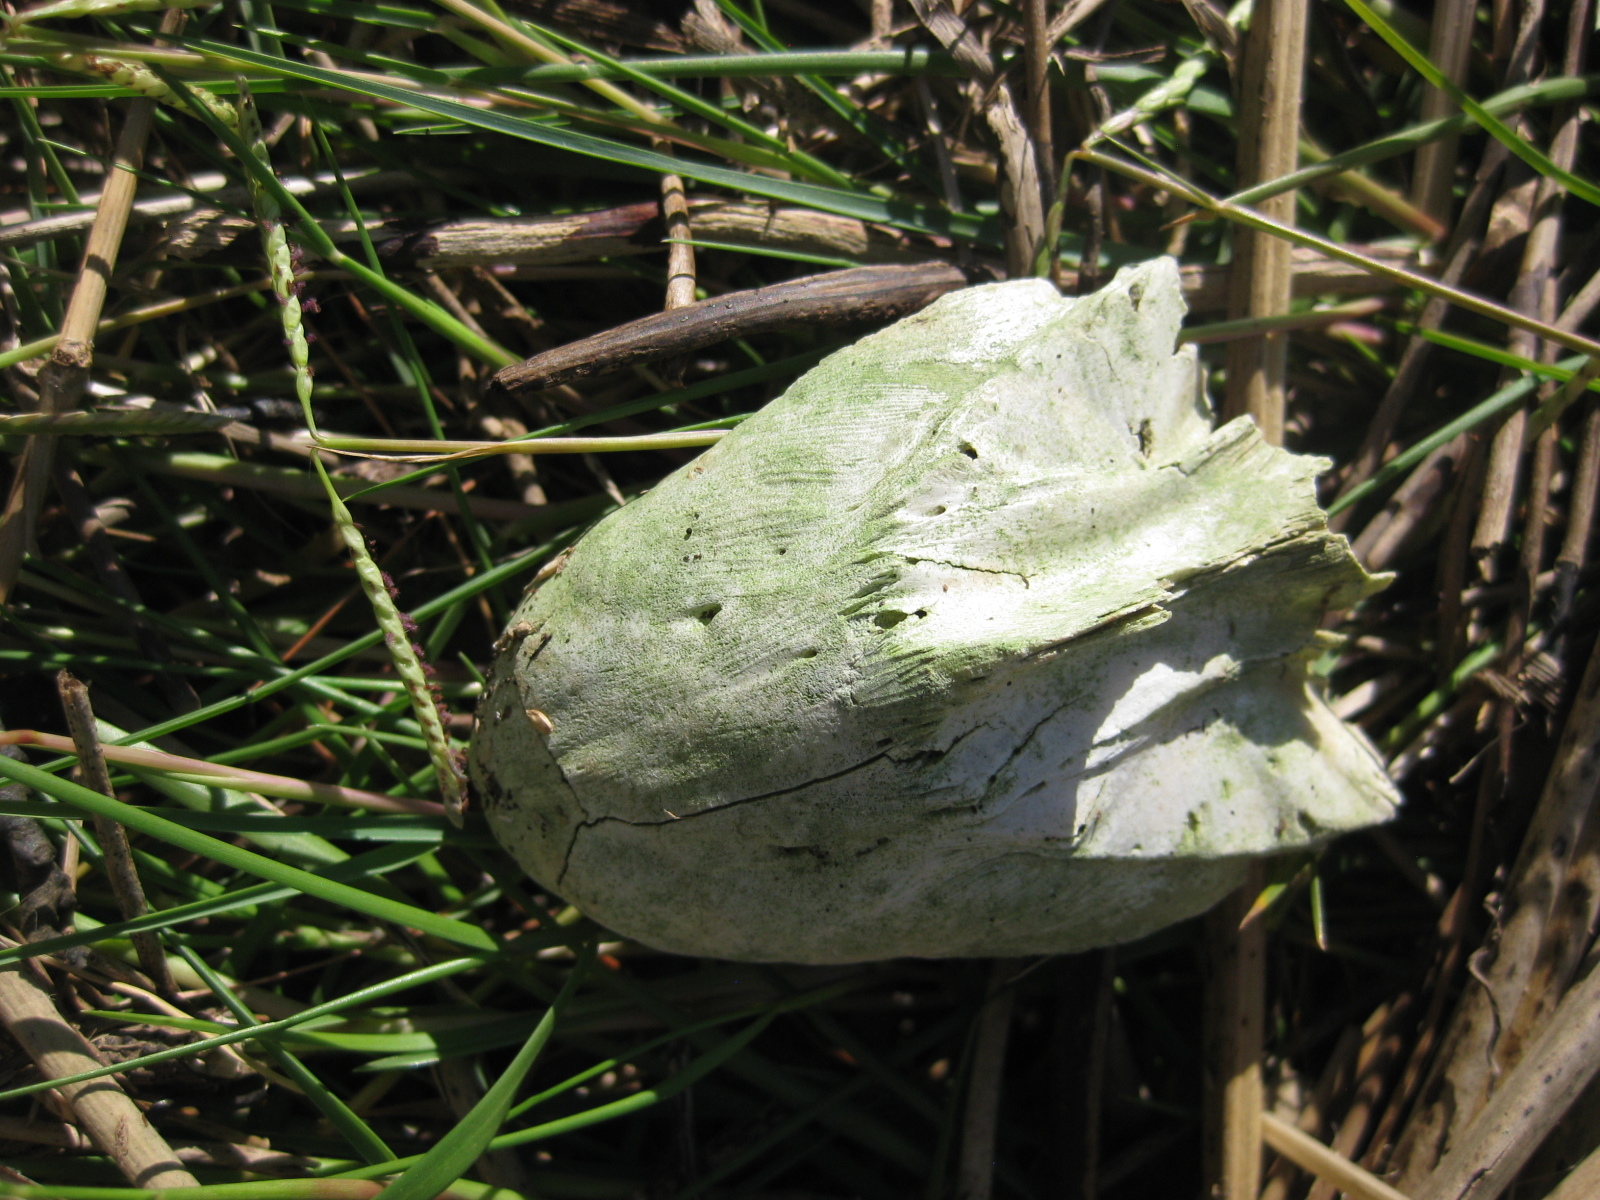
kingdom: Animalia
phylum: Chordata
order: Perciformes
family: Sparidae
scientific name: Sparidae
